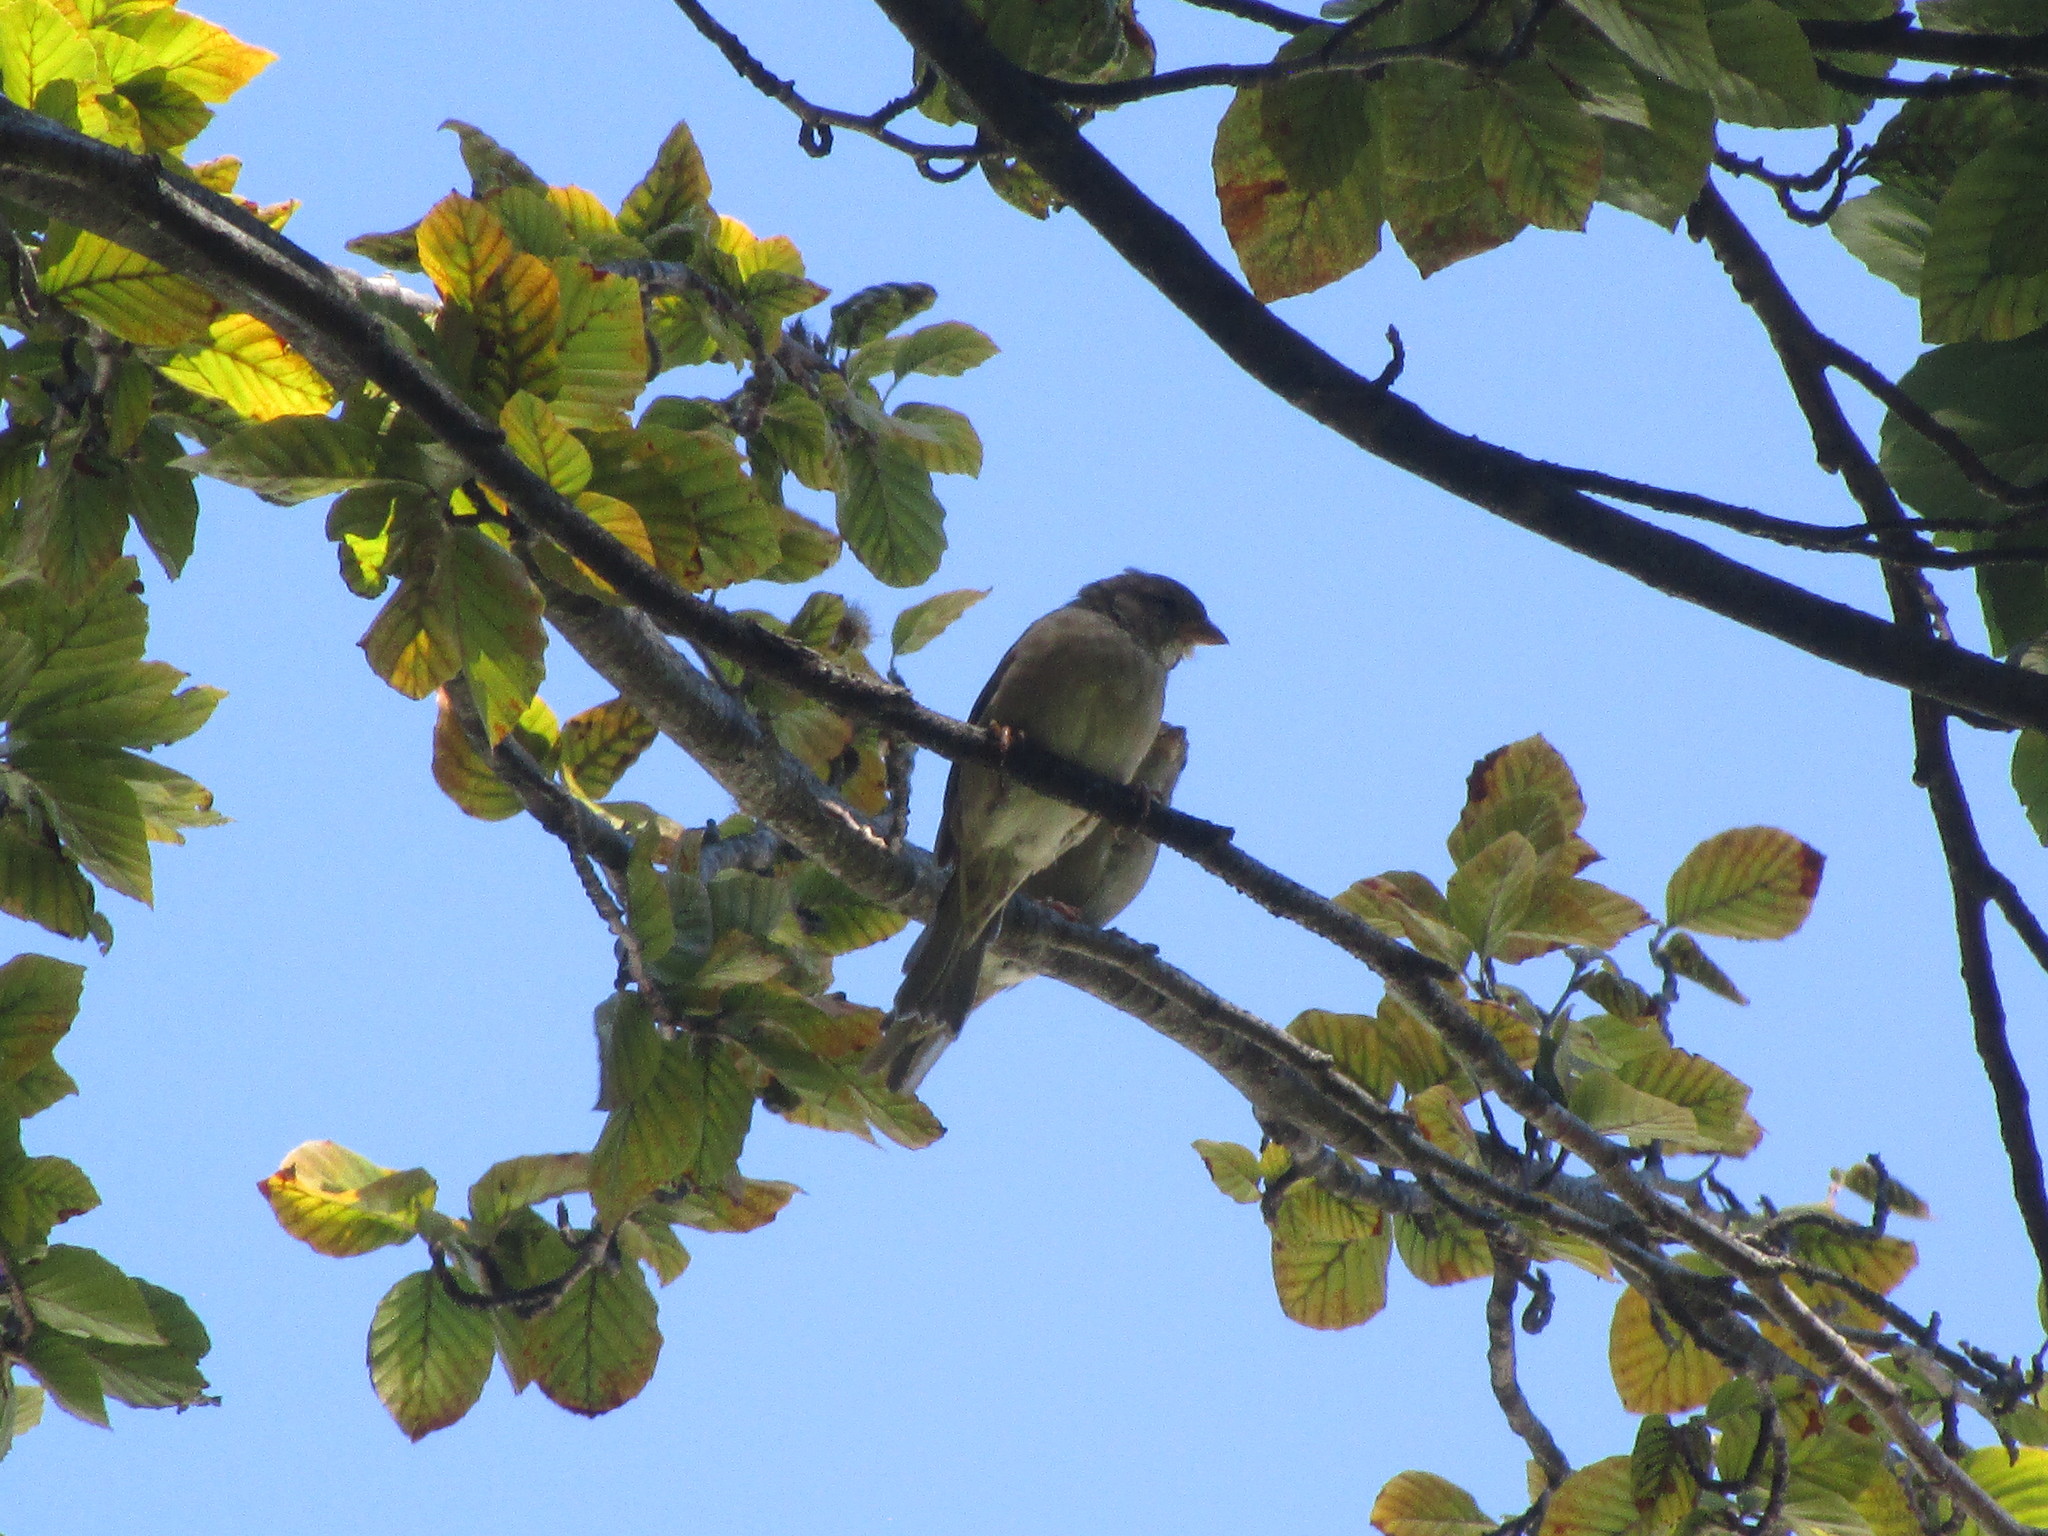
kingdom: Animalia
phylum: Chordata
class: Aves
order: Passeriformes
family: Passeridae
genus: Passer
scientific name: Passer domesticus
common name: House sparrow
